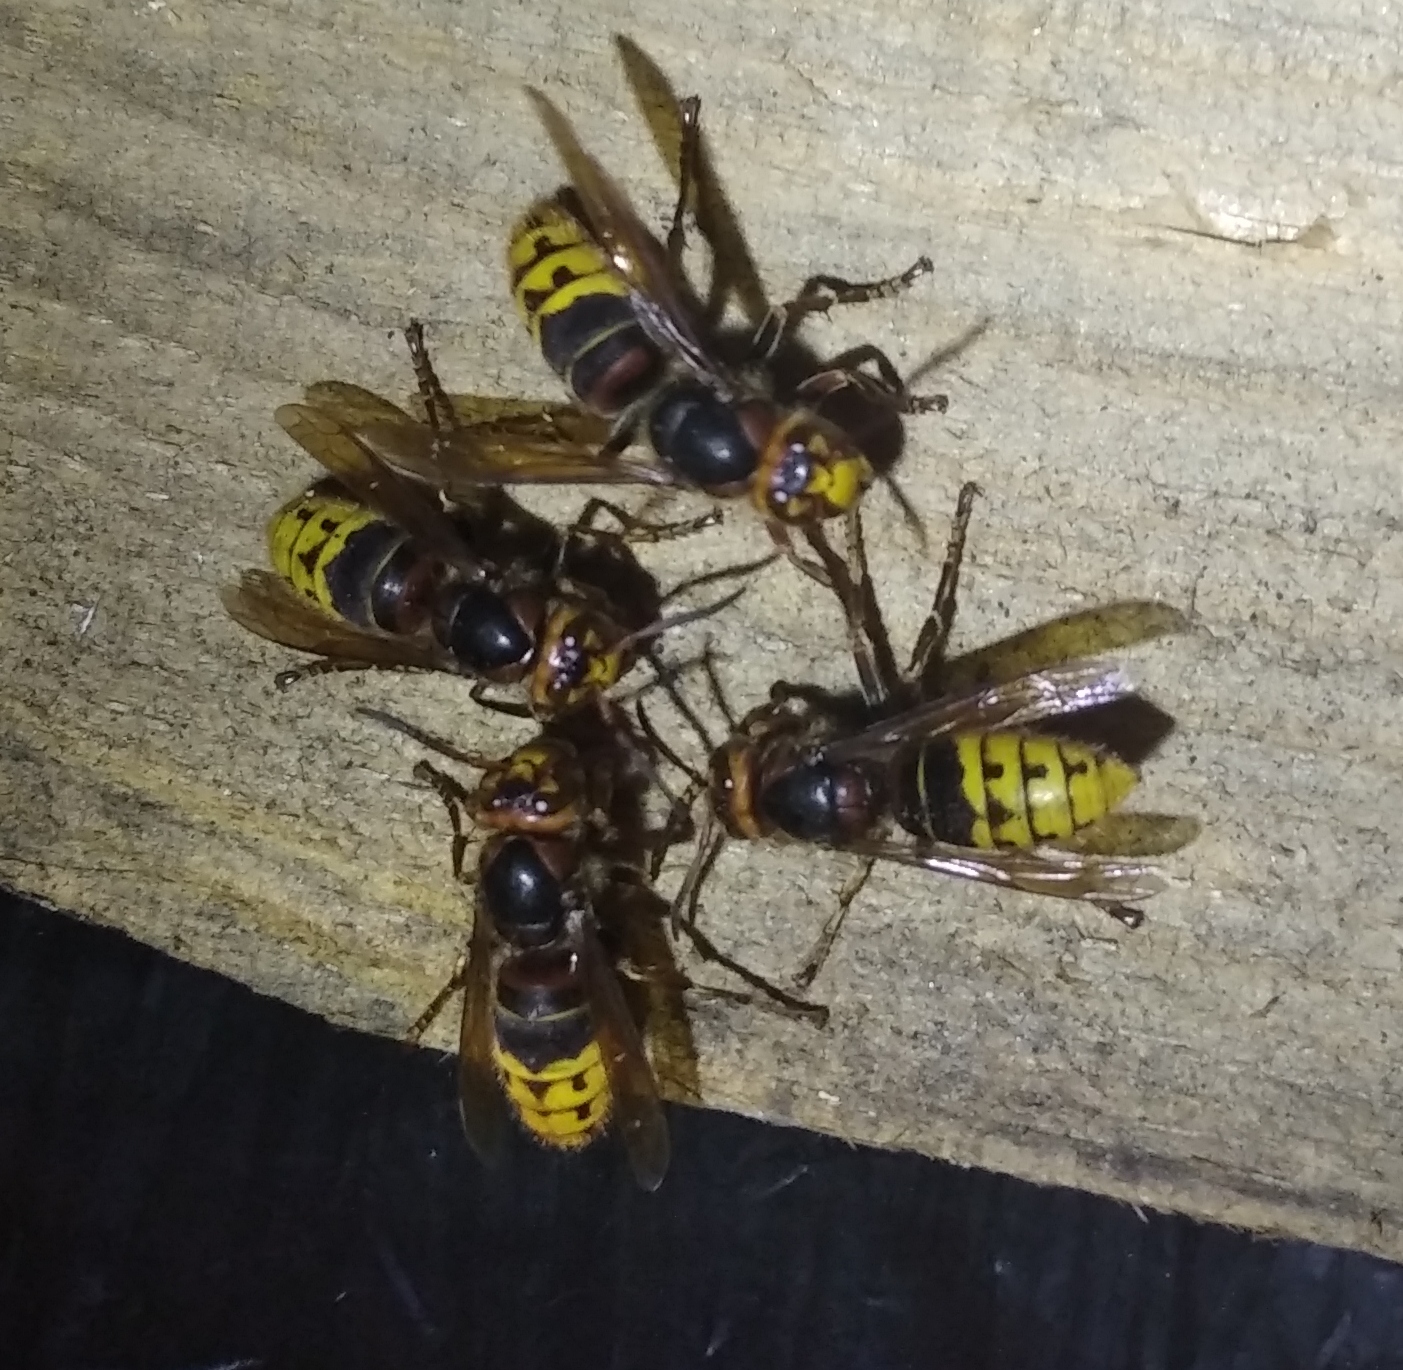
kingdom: Animalia
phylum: Arthropoda
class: Insecta
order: Hymenoptera
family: Vespidae
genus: Vespa
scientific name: Vespa crabro
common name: Hornet
